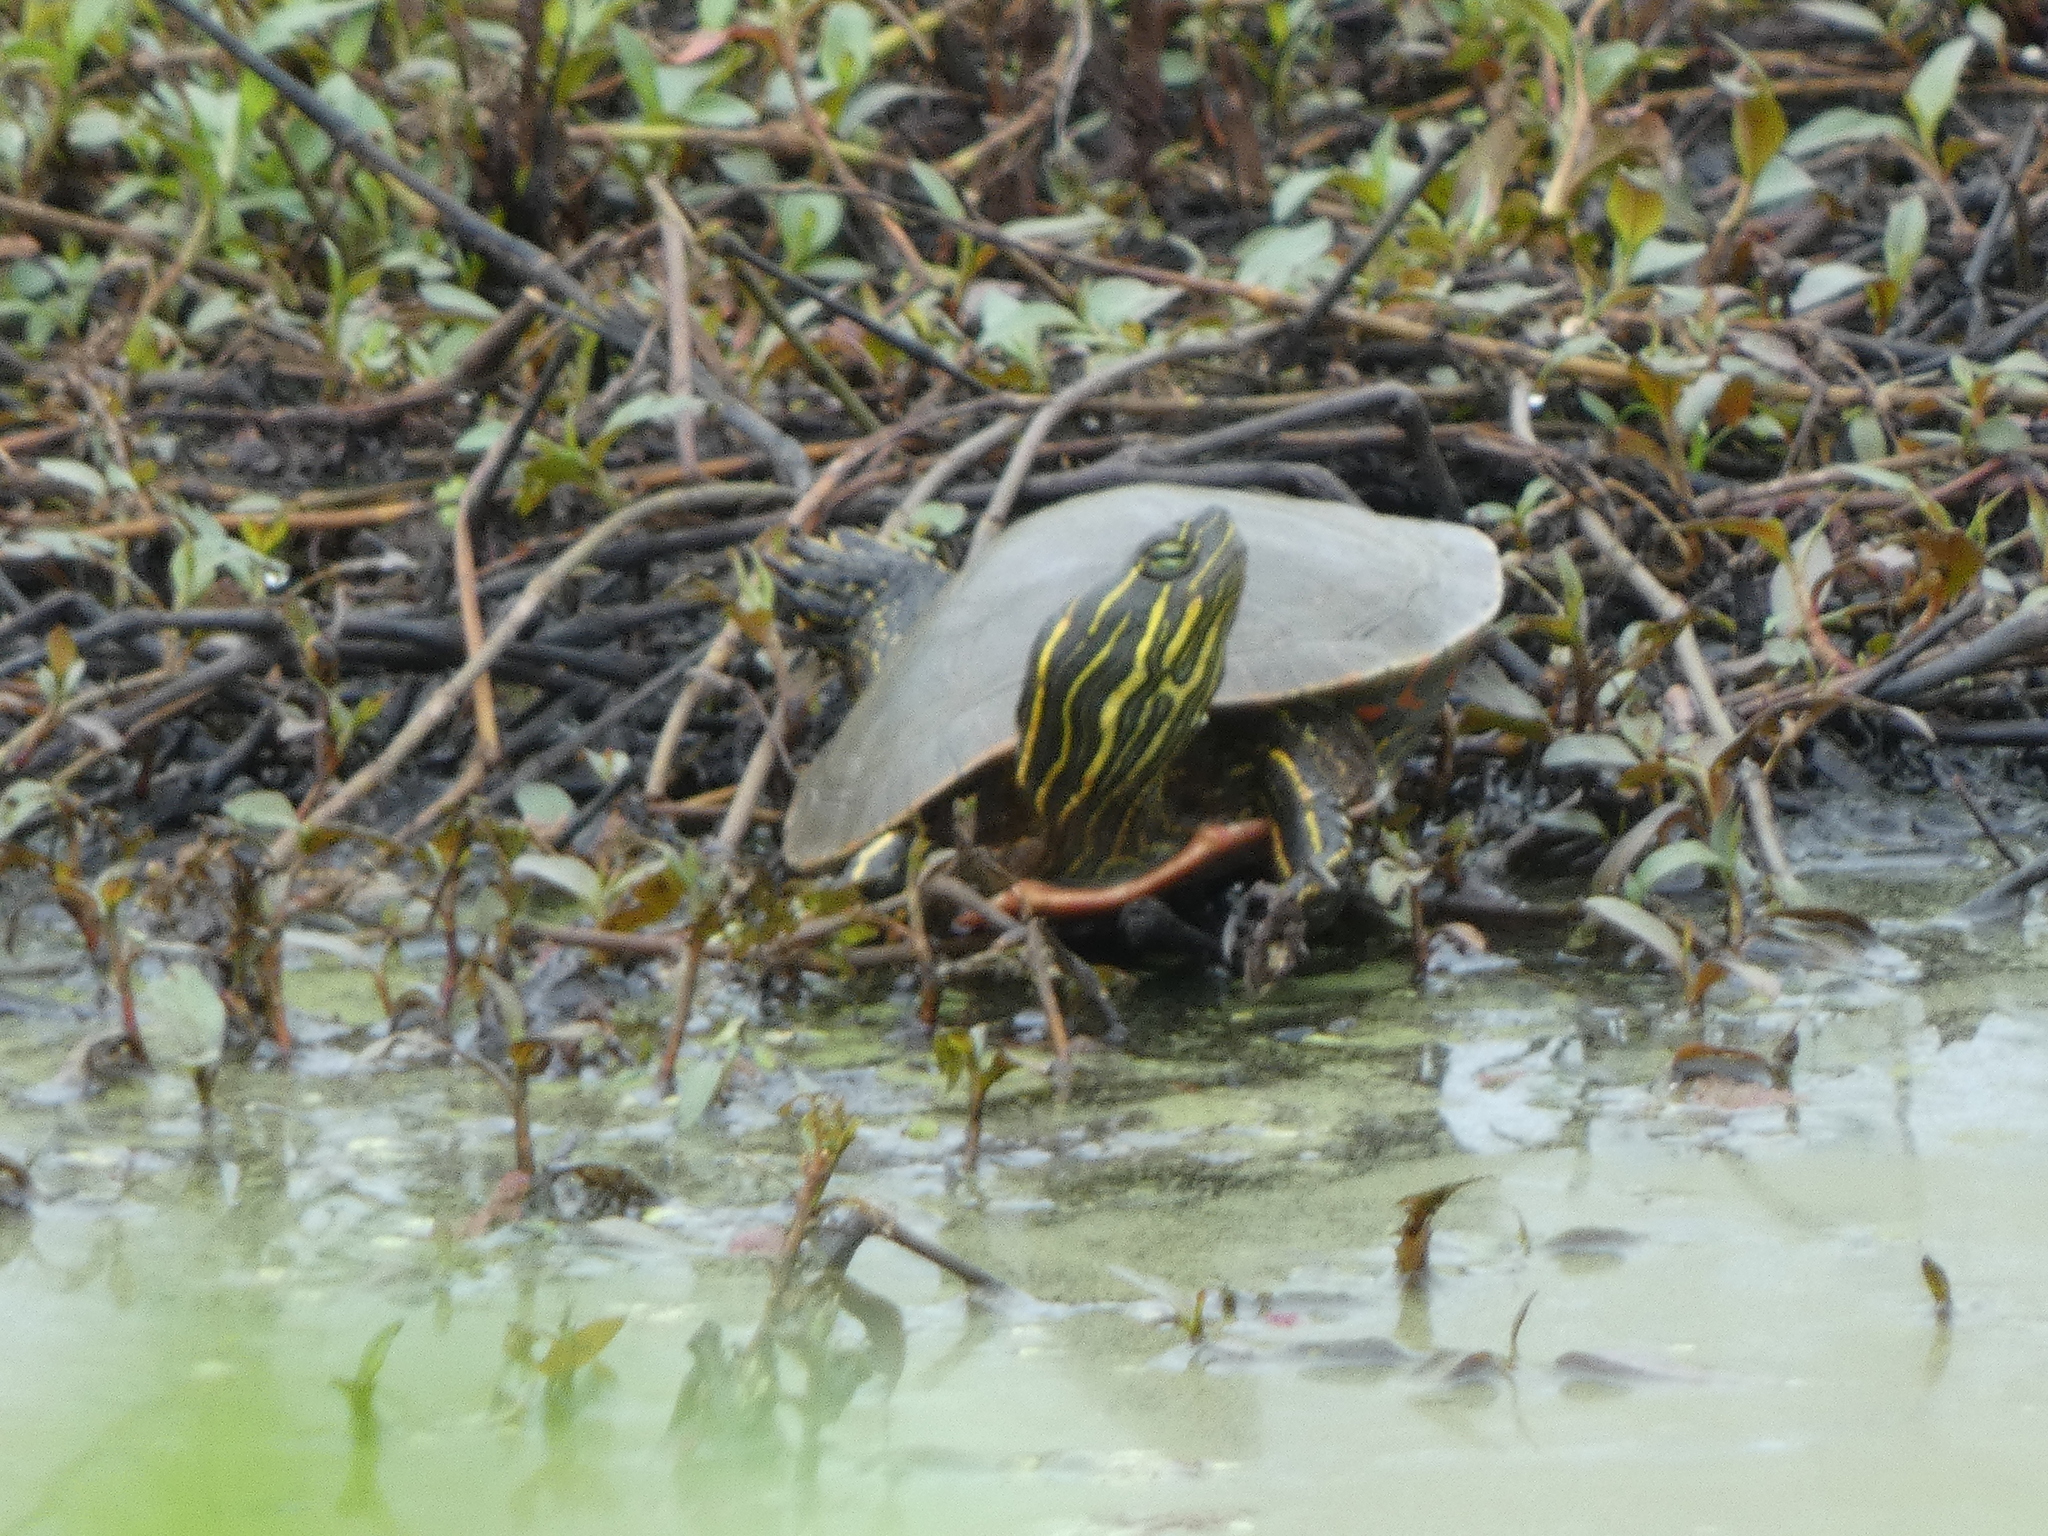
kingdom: Animalia
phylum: Chordata
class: Testudines
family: Emydidae
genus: Chrysemys
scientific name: Chrysemys picta
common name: Painted turtle
